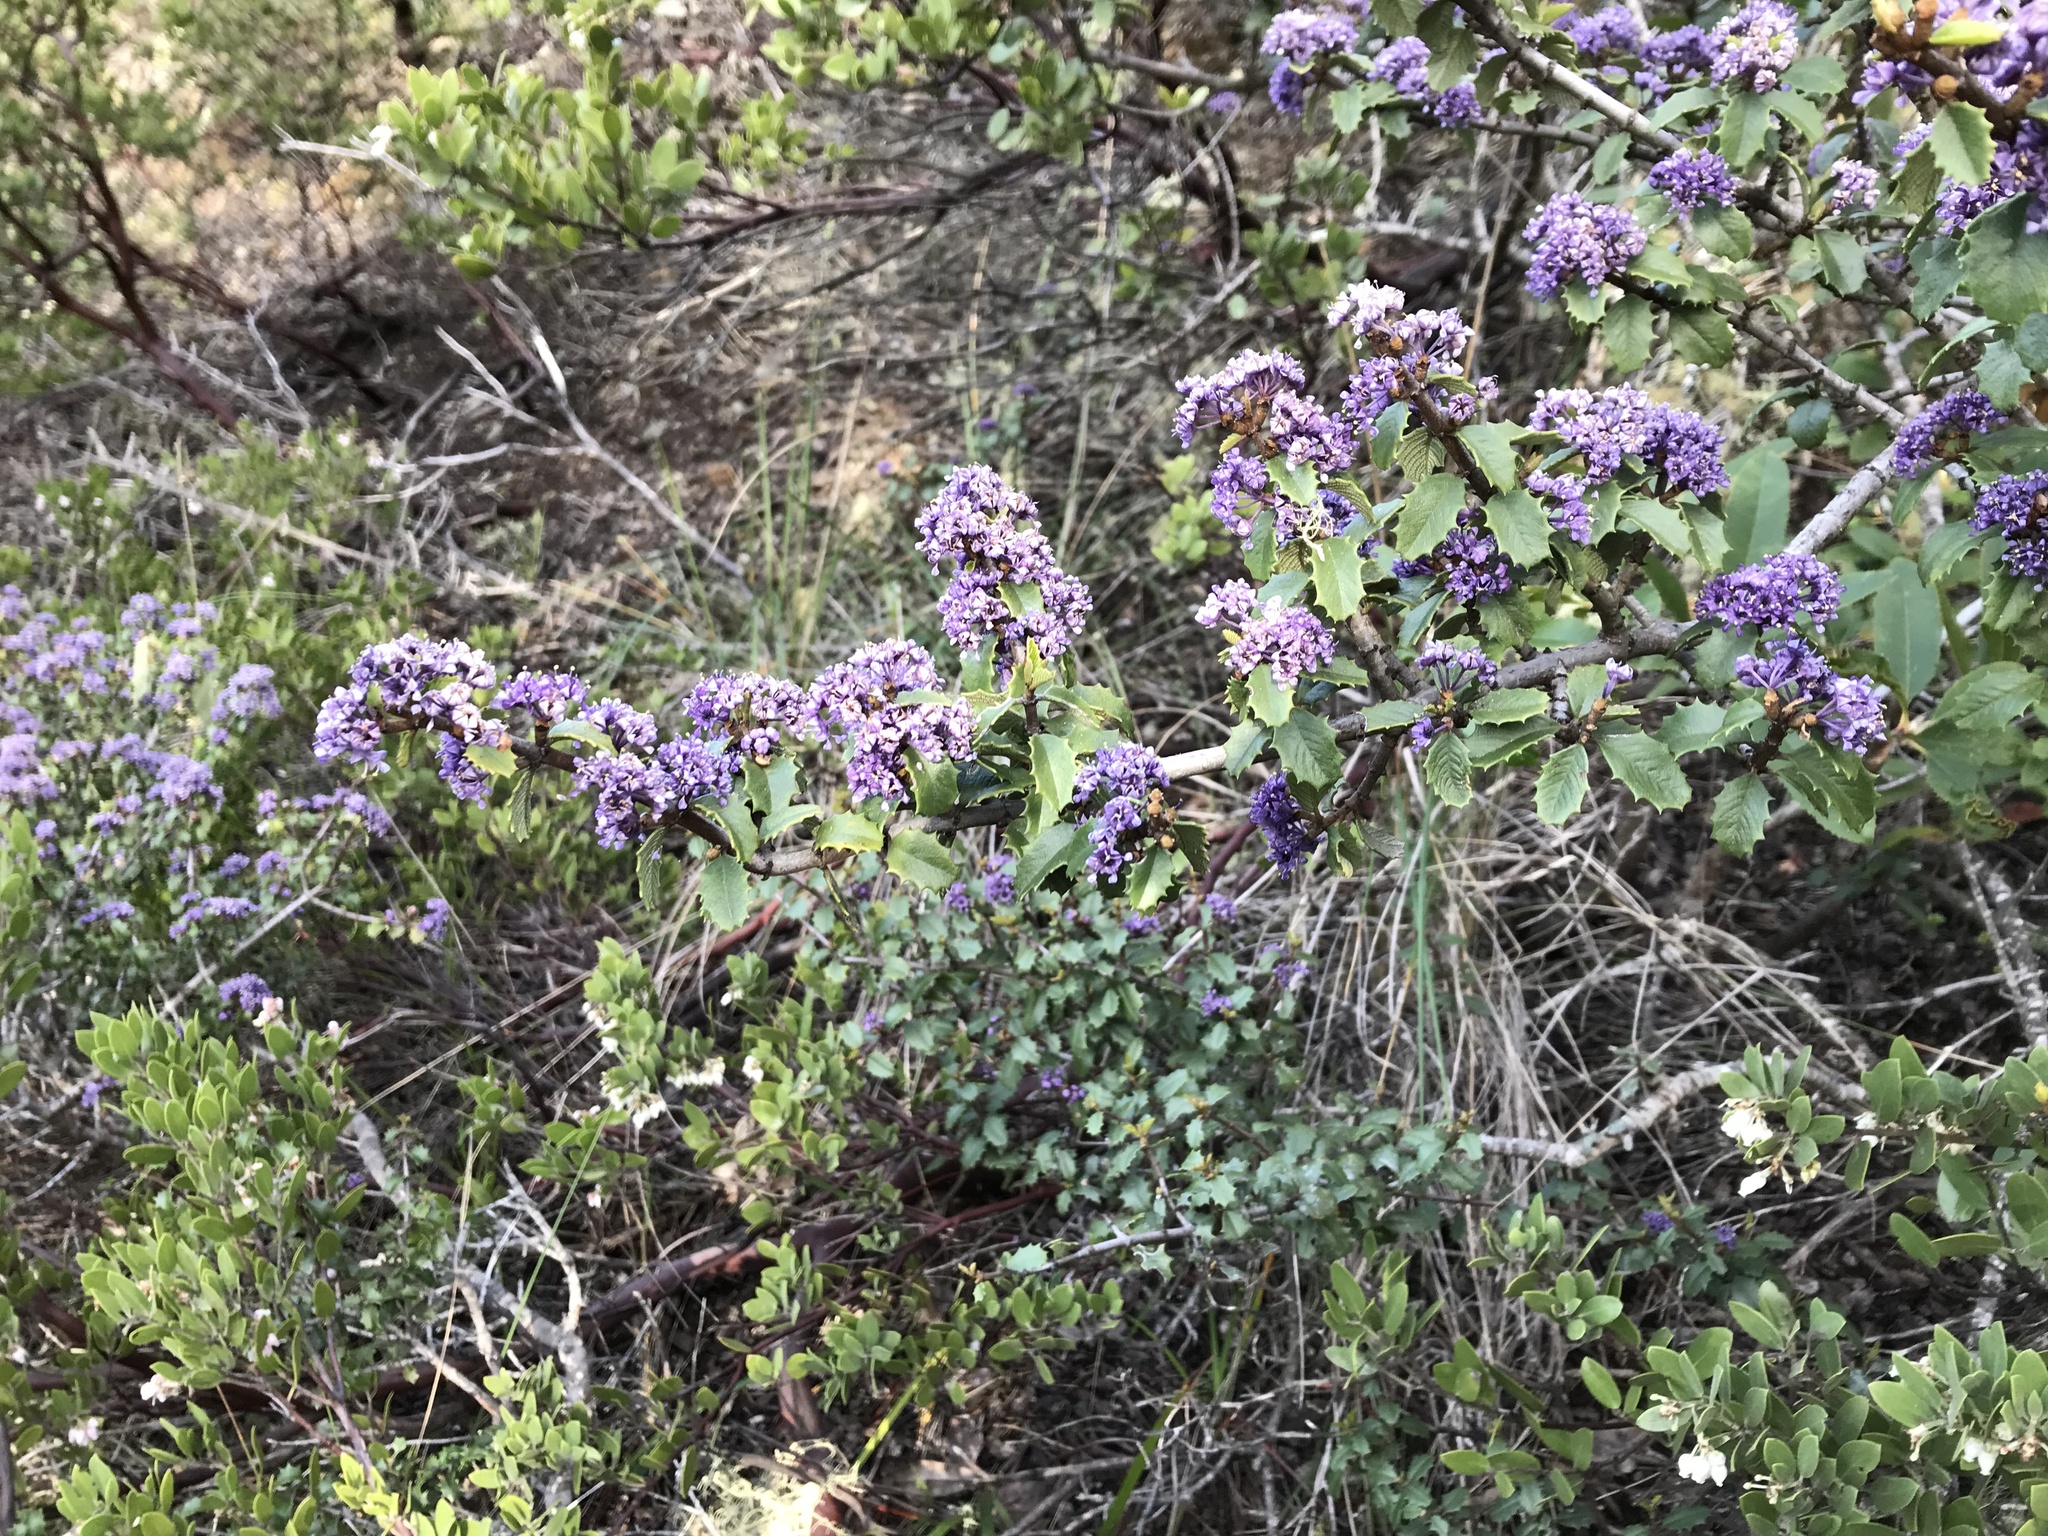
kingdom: Plantae
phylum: Tracheophyta
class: Magnoliopsida
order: Rosales
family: Rhamnaceae
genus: Ceanothus
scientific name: Ceanothus jepsonii
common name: Muskbrush
